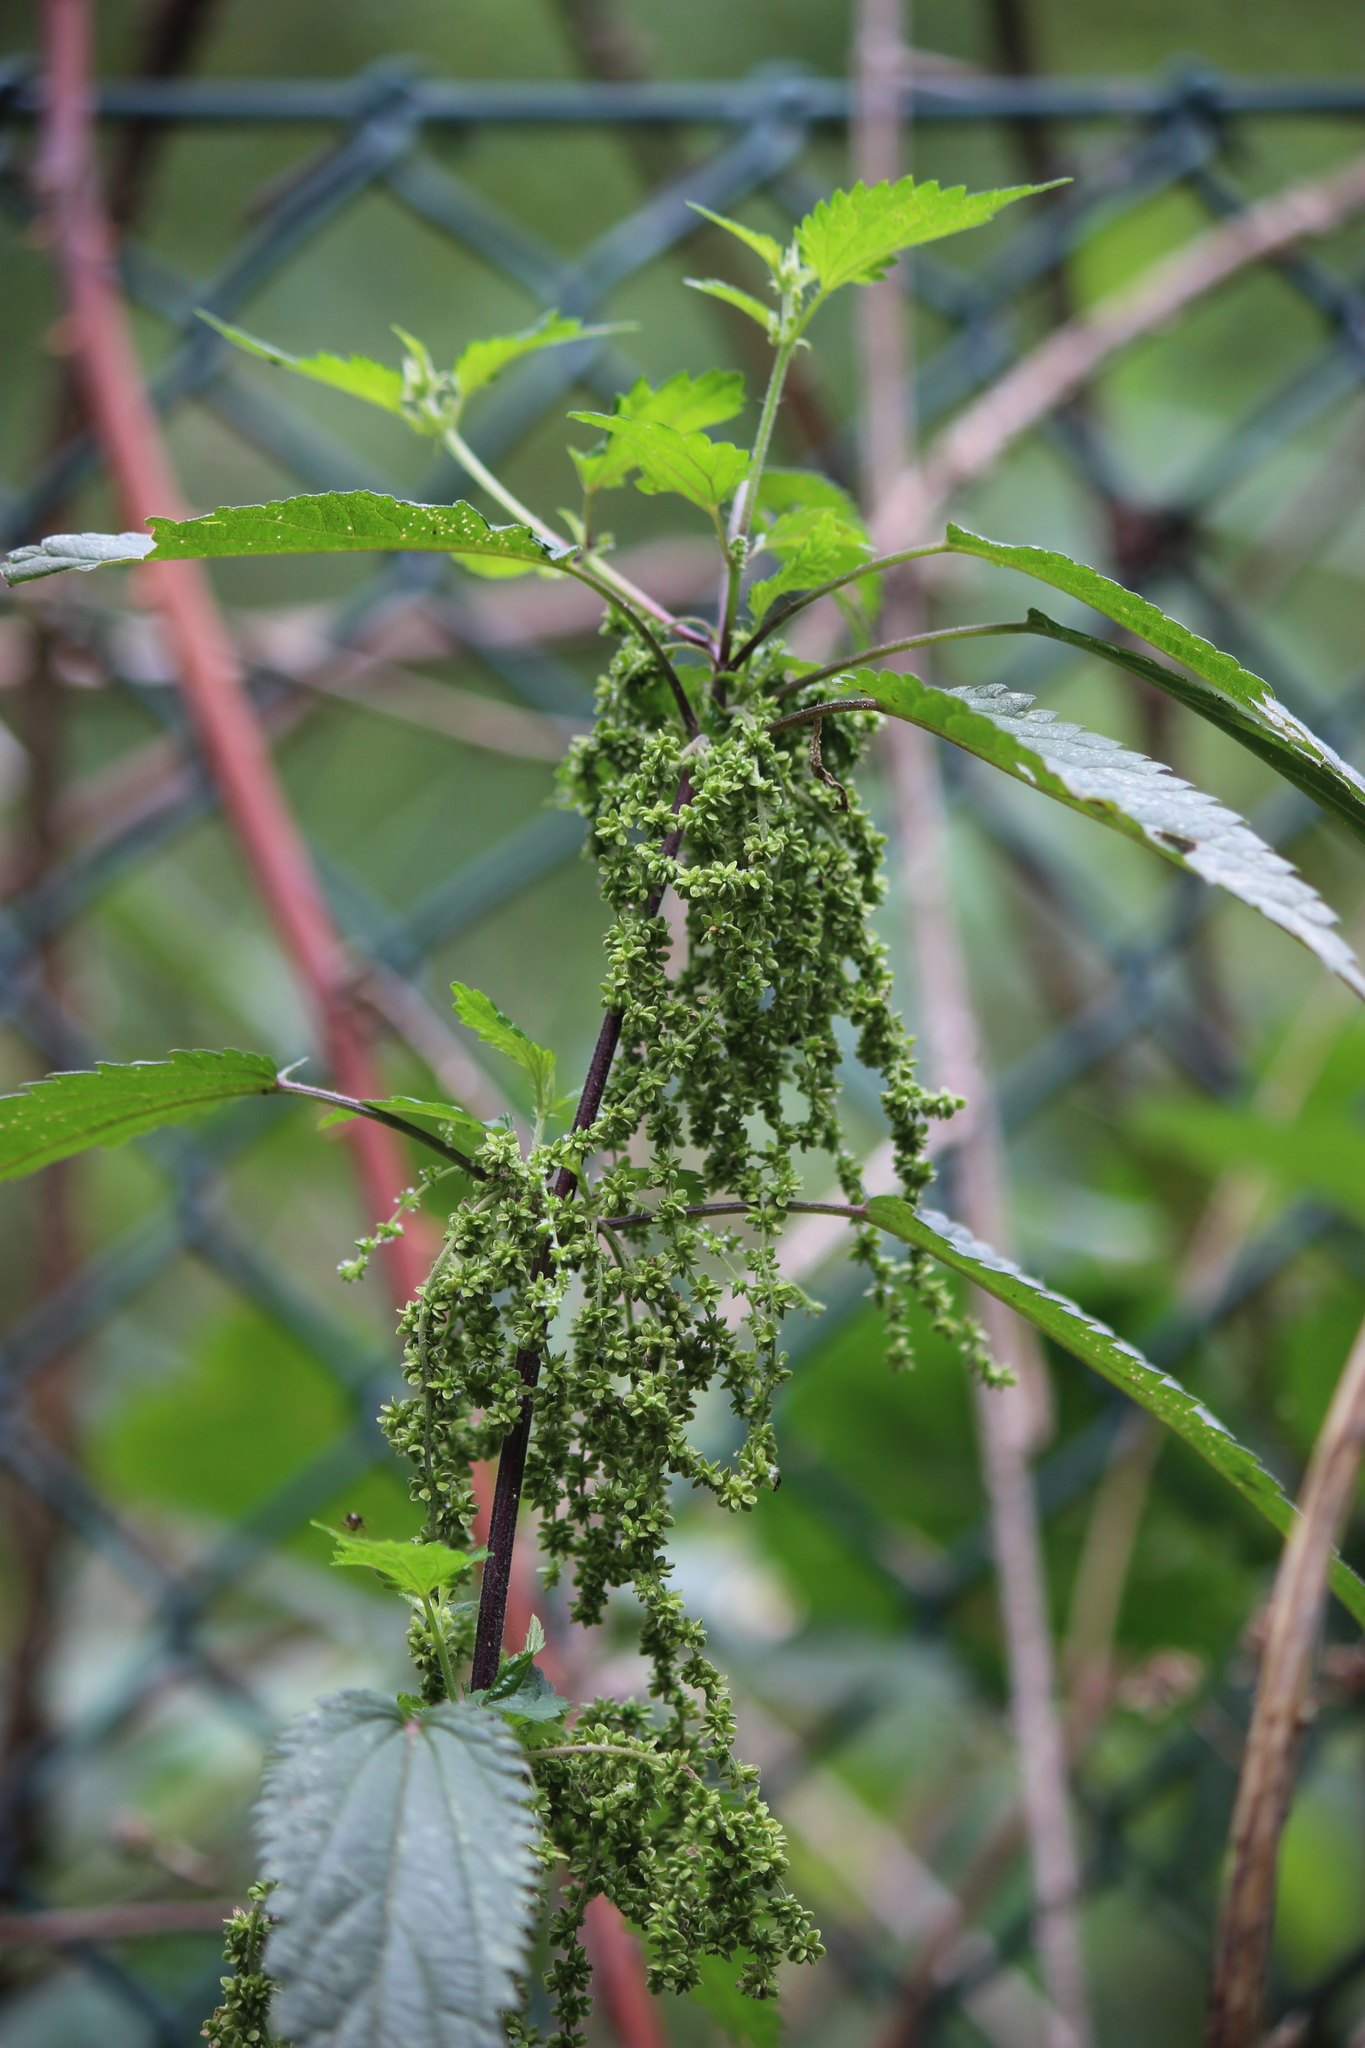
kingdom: Plantae
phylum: Tracheophyta
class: Magnoliopsida
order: Rosales
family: Urticaceae
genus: Urtica
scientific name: Urtica dioica
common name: Common nettle
